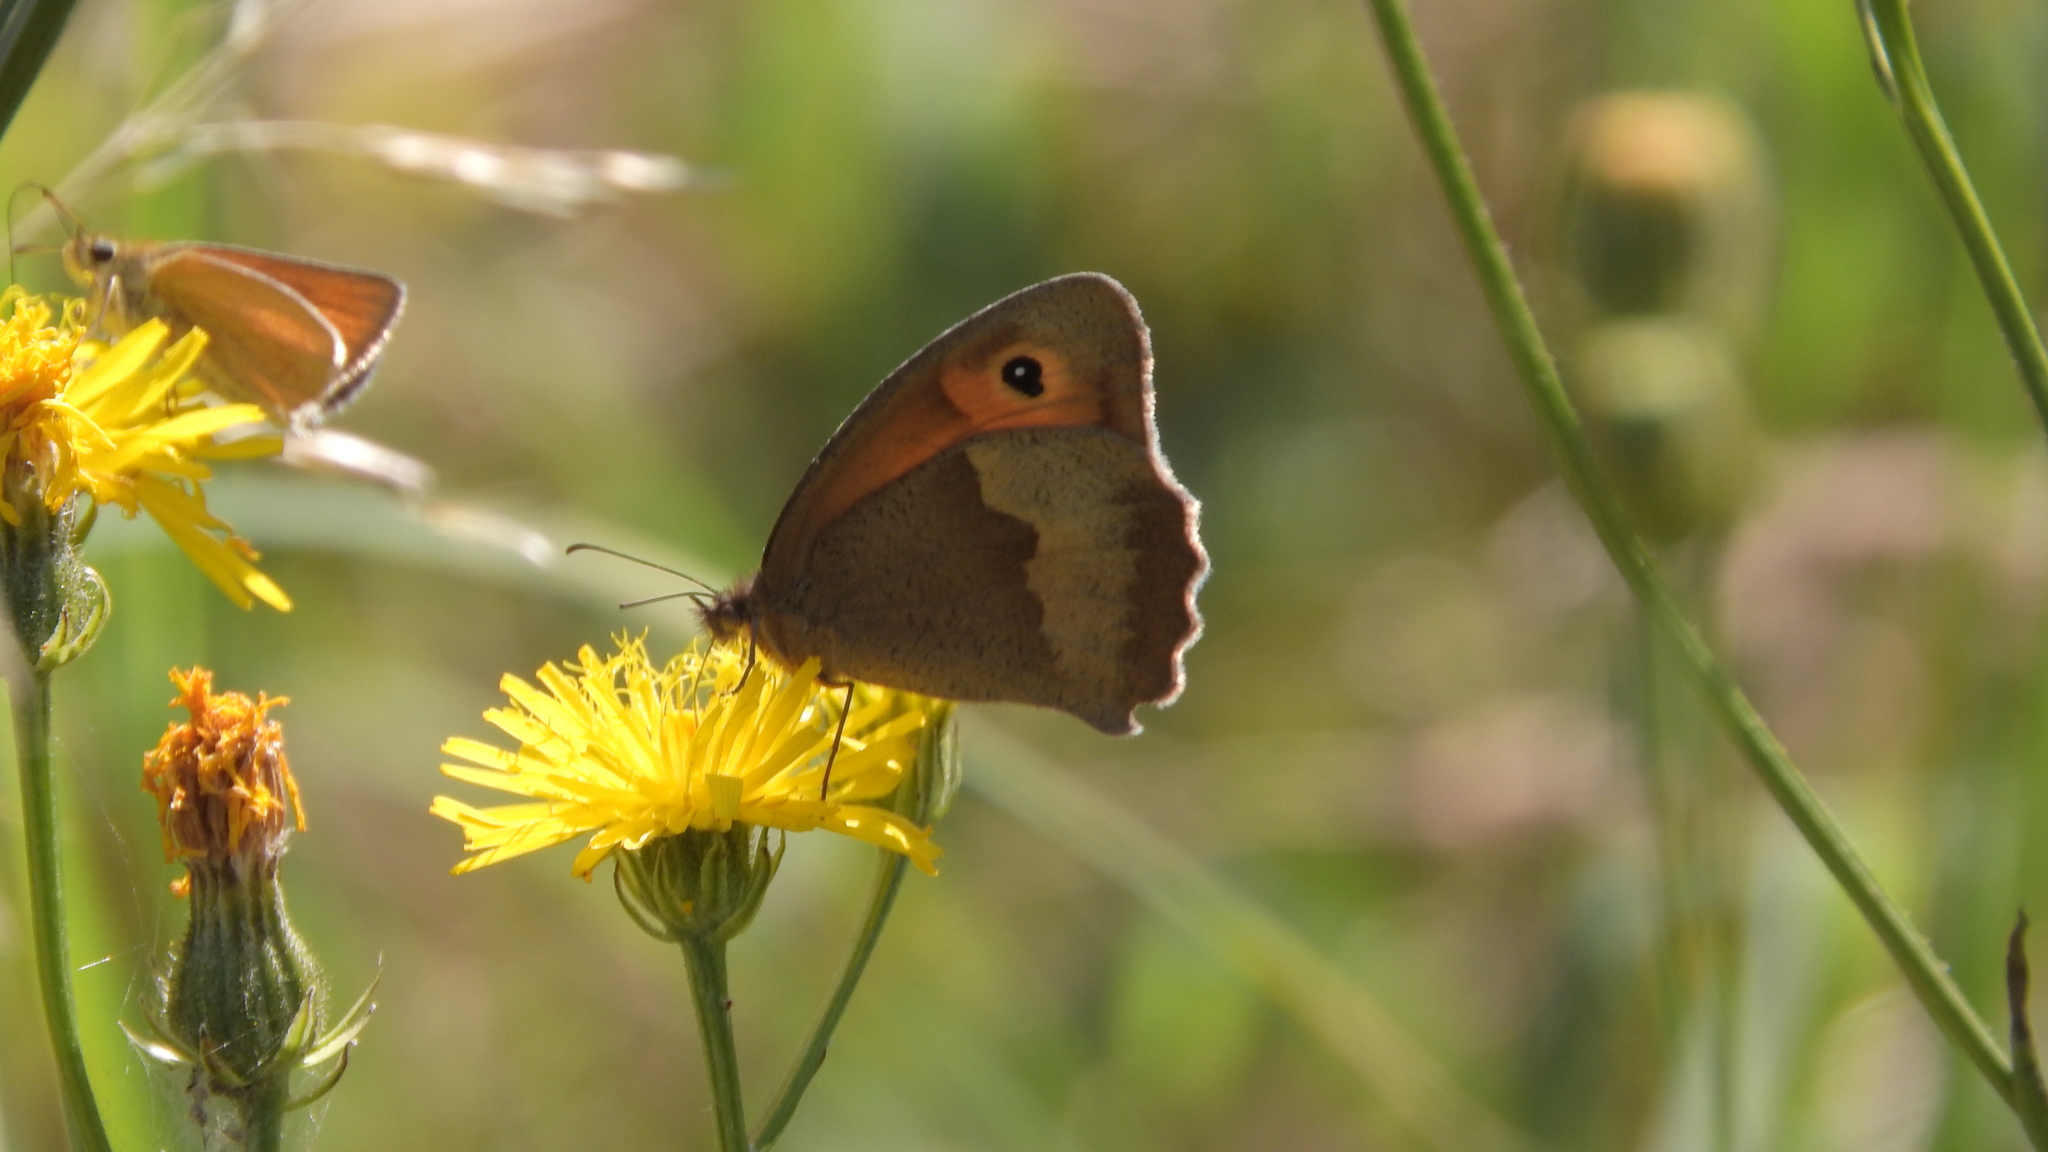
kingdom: Animalia
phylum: Arthropoda
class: Insecta
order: Lepidoptera
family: Nymphalidae
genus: Maniola
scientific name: Maniola jurtina
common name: Meadow brown
